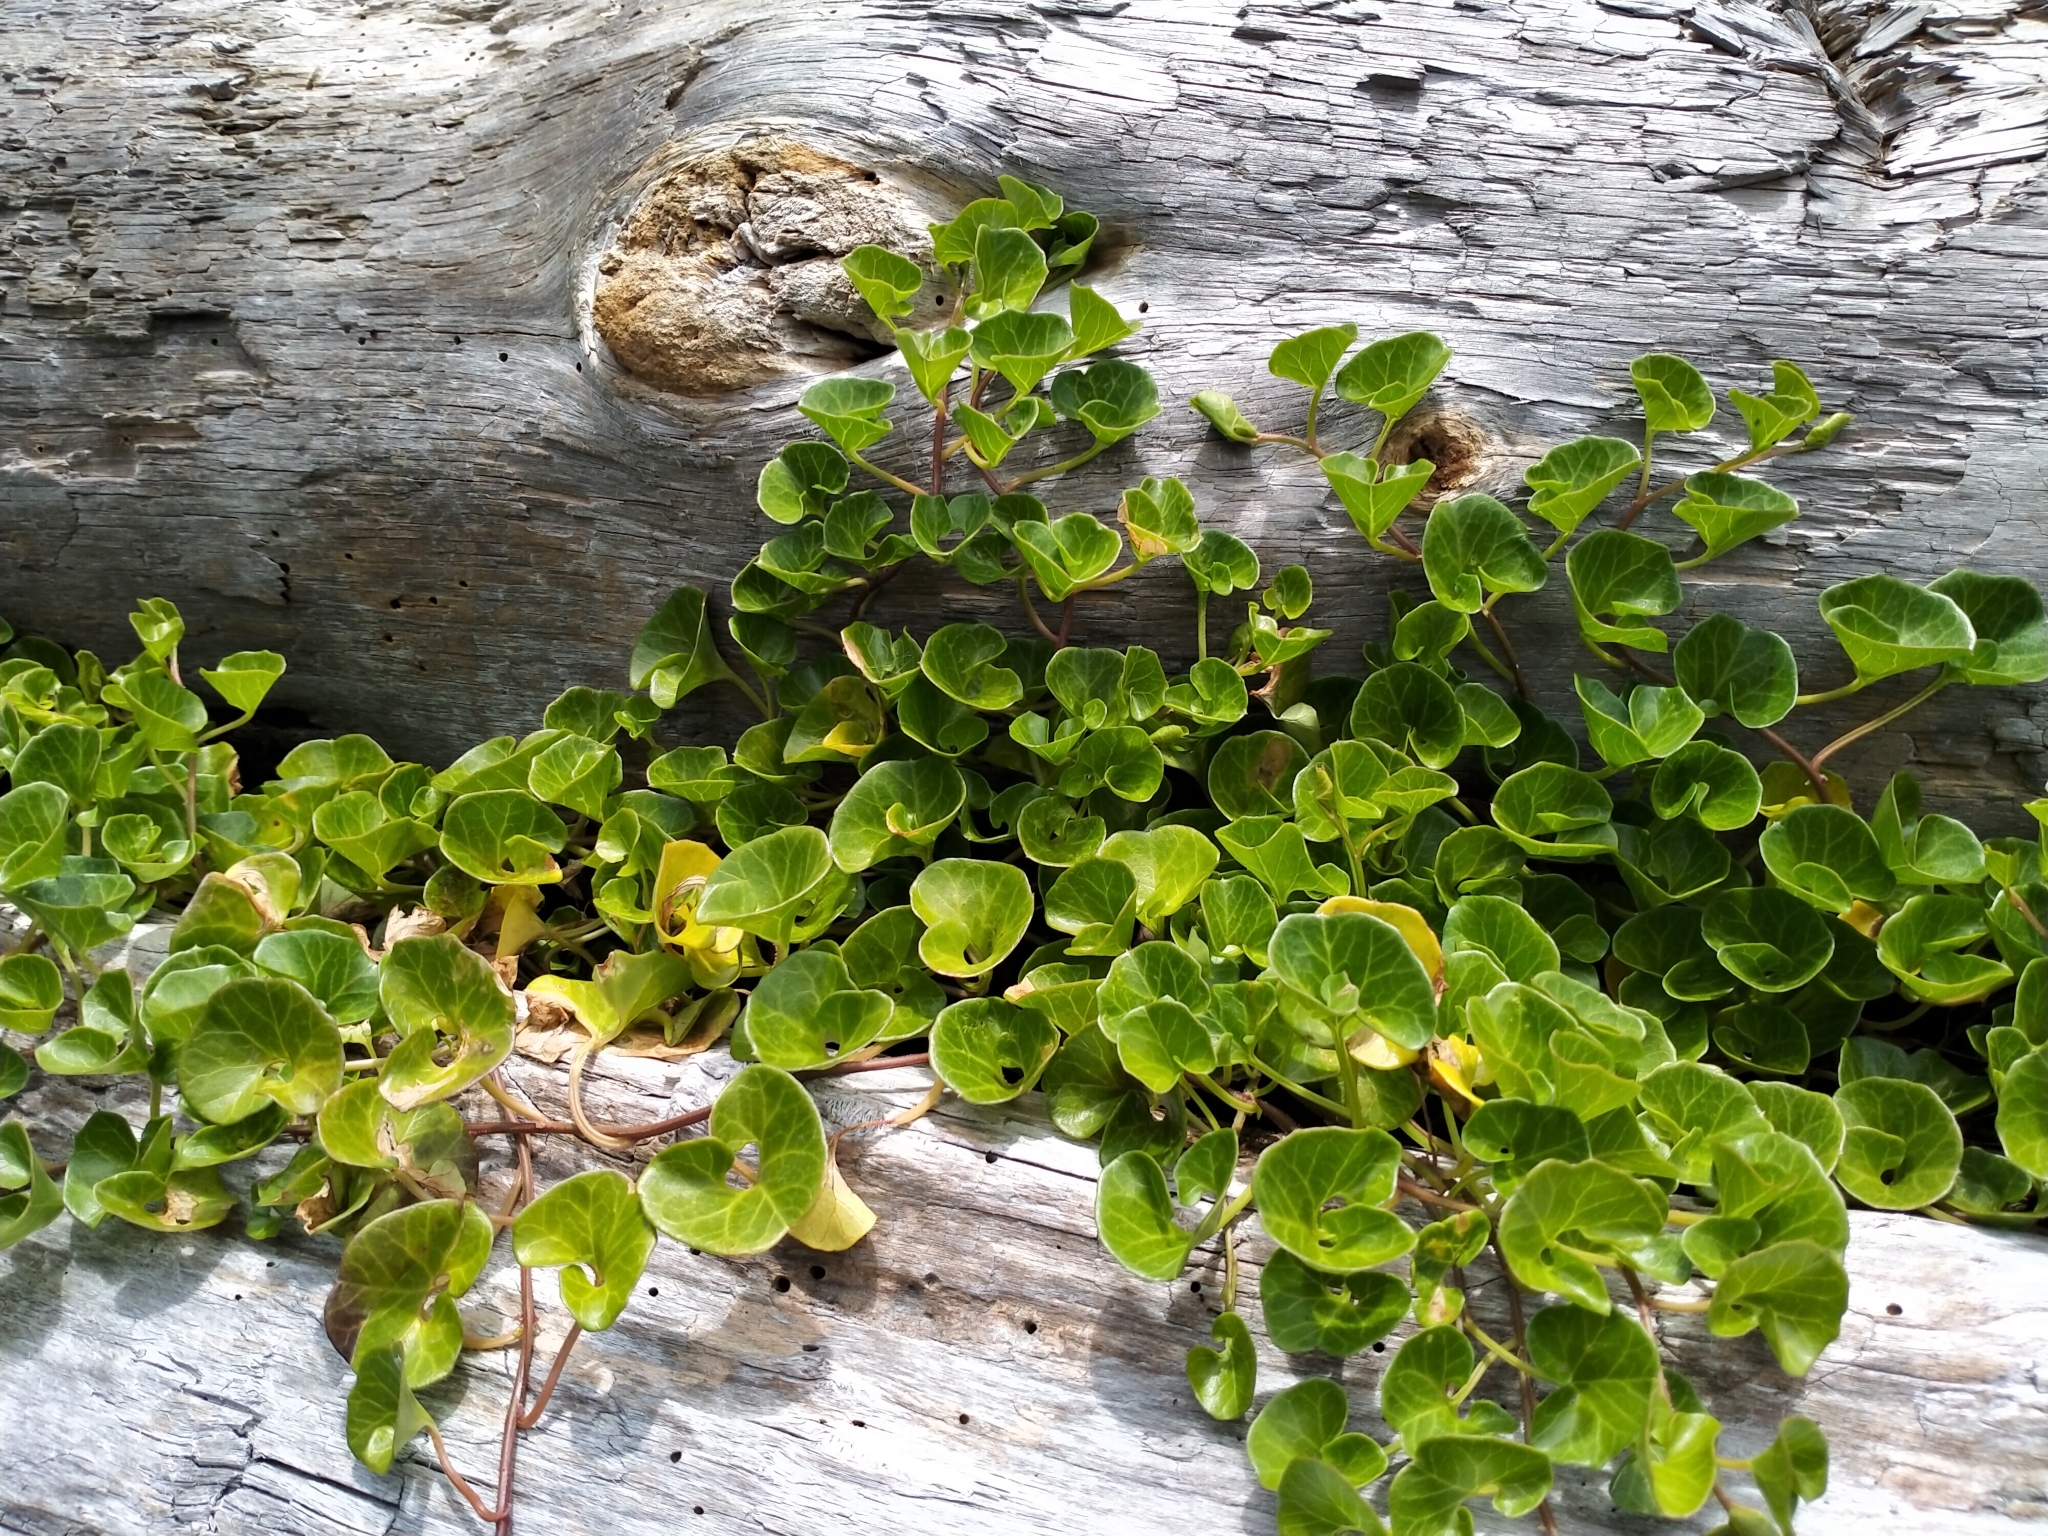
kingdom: Plantae
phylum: Tracheophyta
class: Magnoliopsida
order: Solanales
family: Convolvulaceae
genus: Calystegia
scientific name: Calystegia soldanella
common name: Sea bindweed
